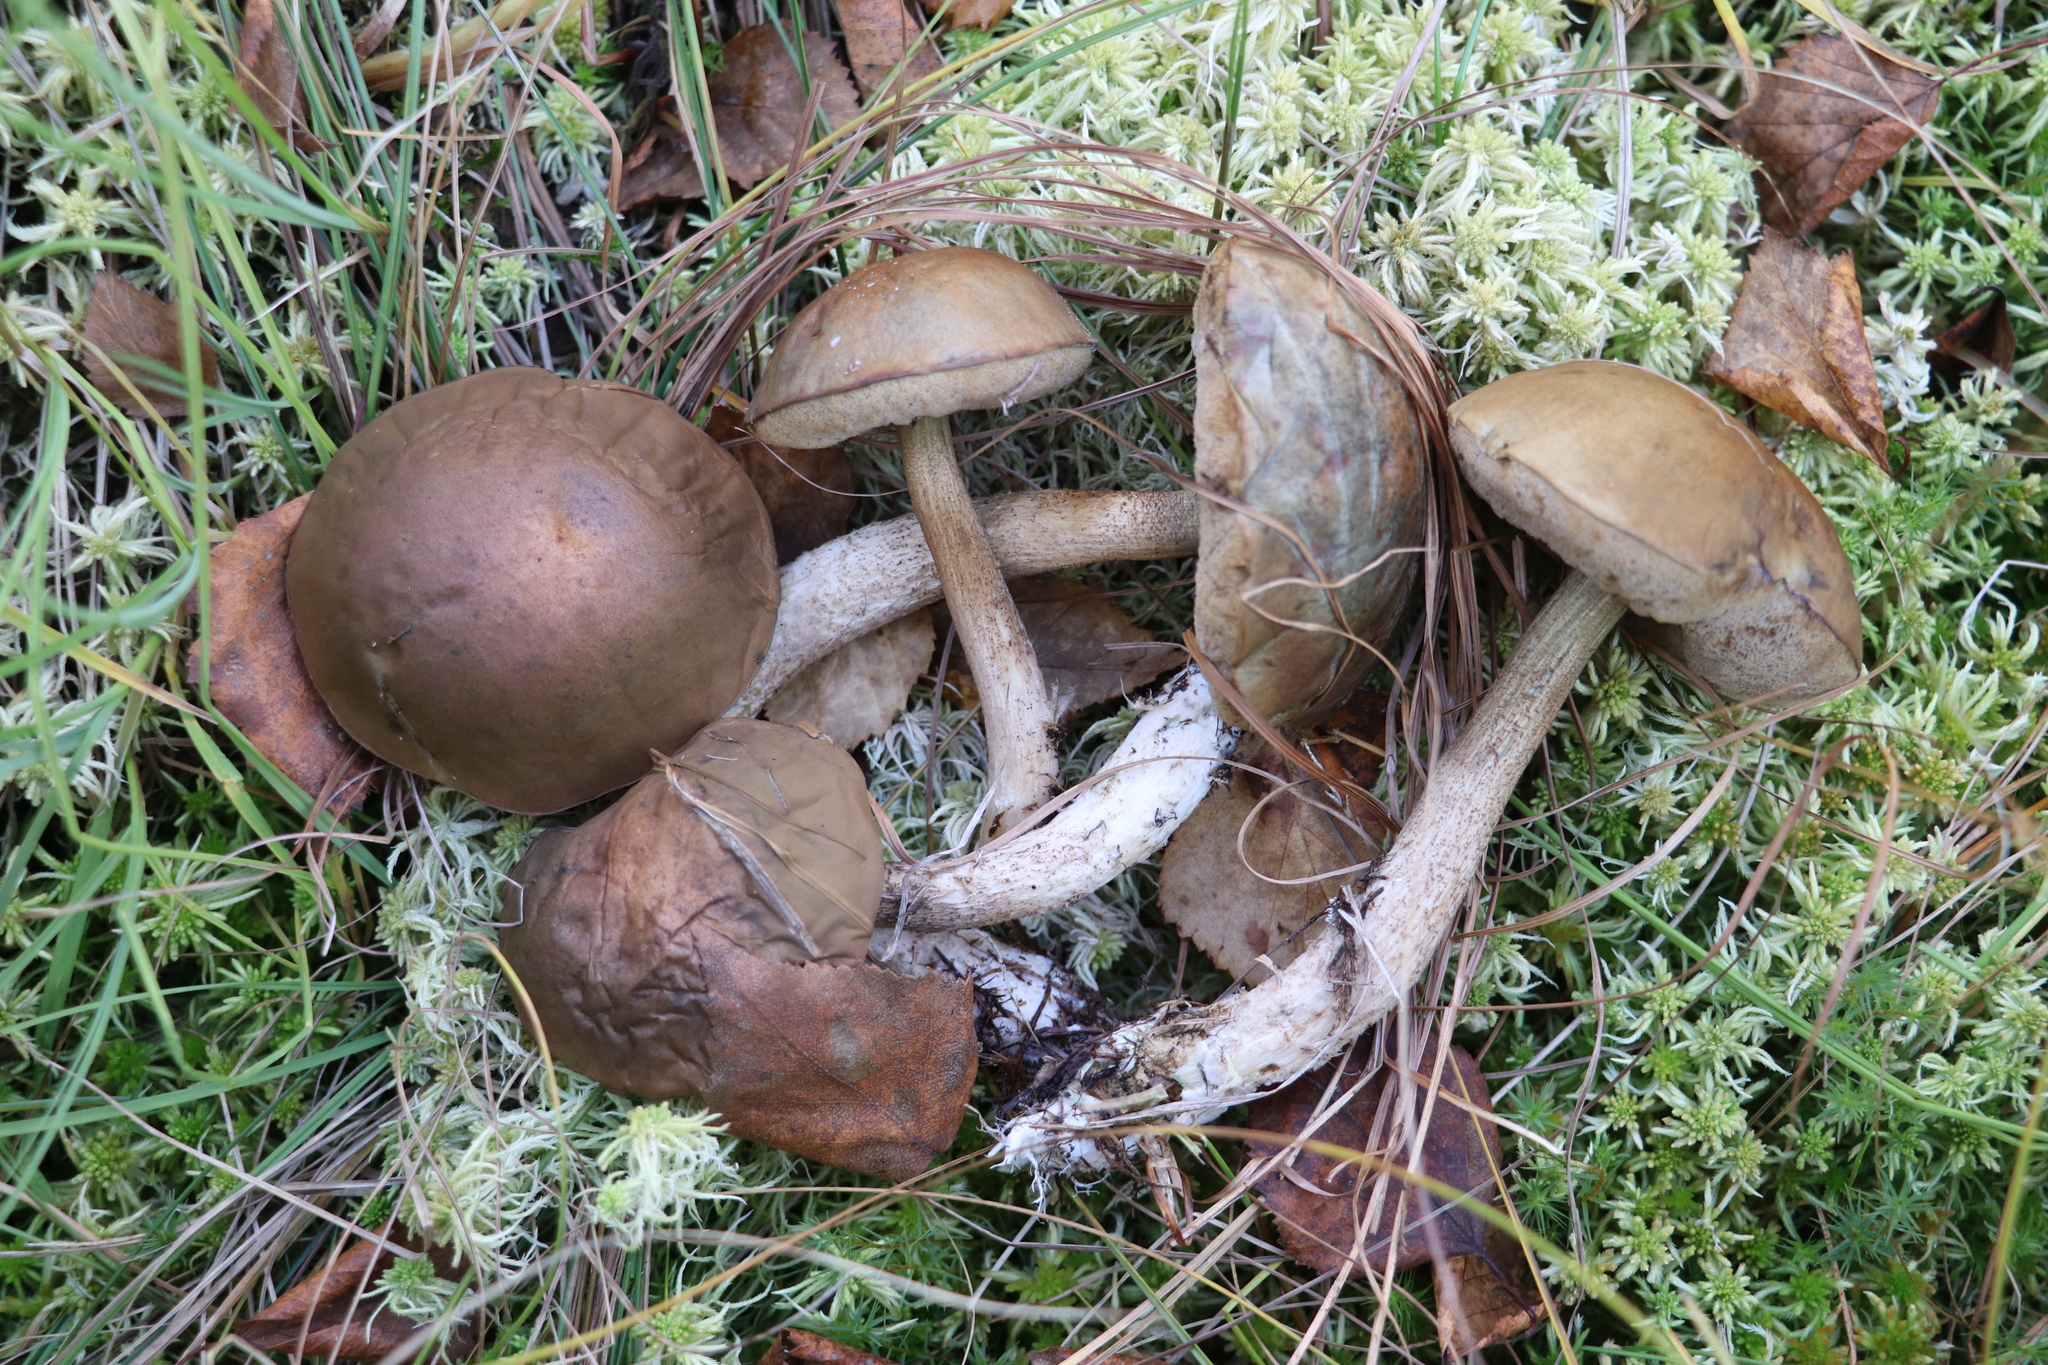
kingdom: Fungi
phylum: Basidiomycota
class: Agaricomycetes
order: Boletales
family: Boletaceae
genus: Leccinum
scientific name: Leccinum holopus
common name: Ghost bolete
